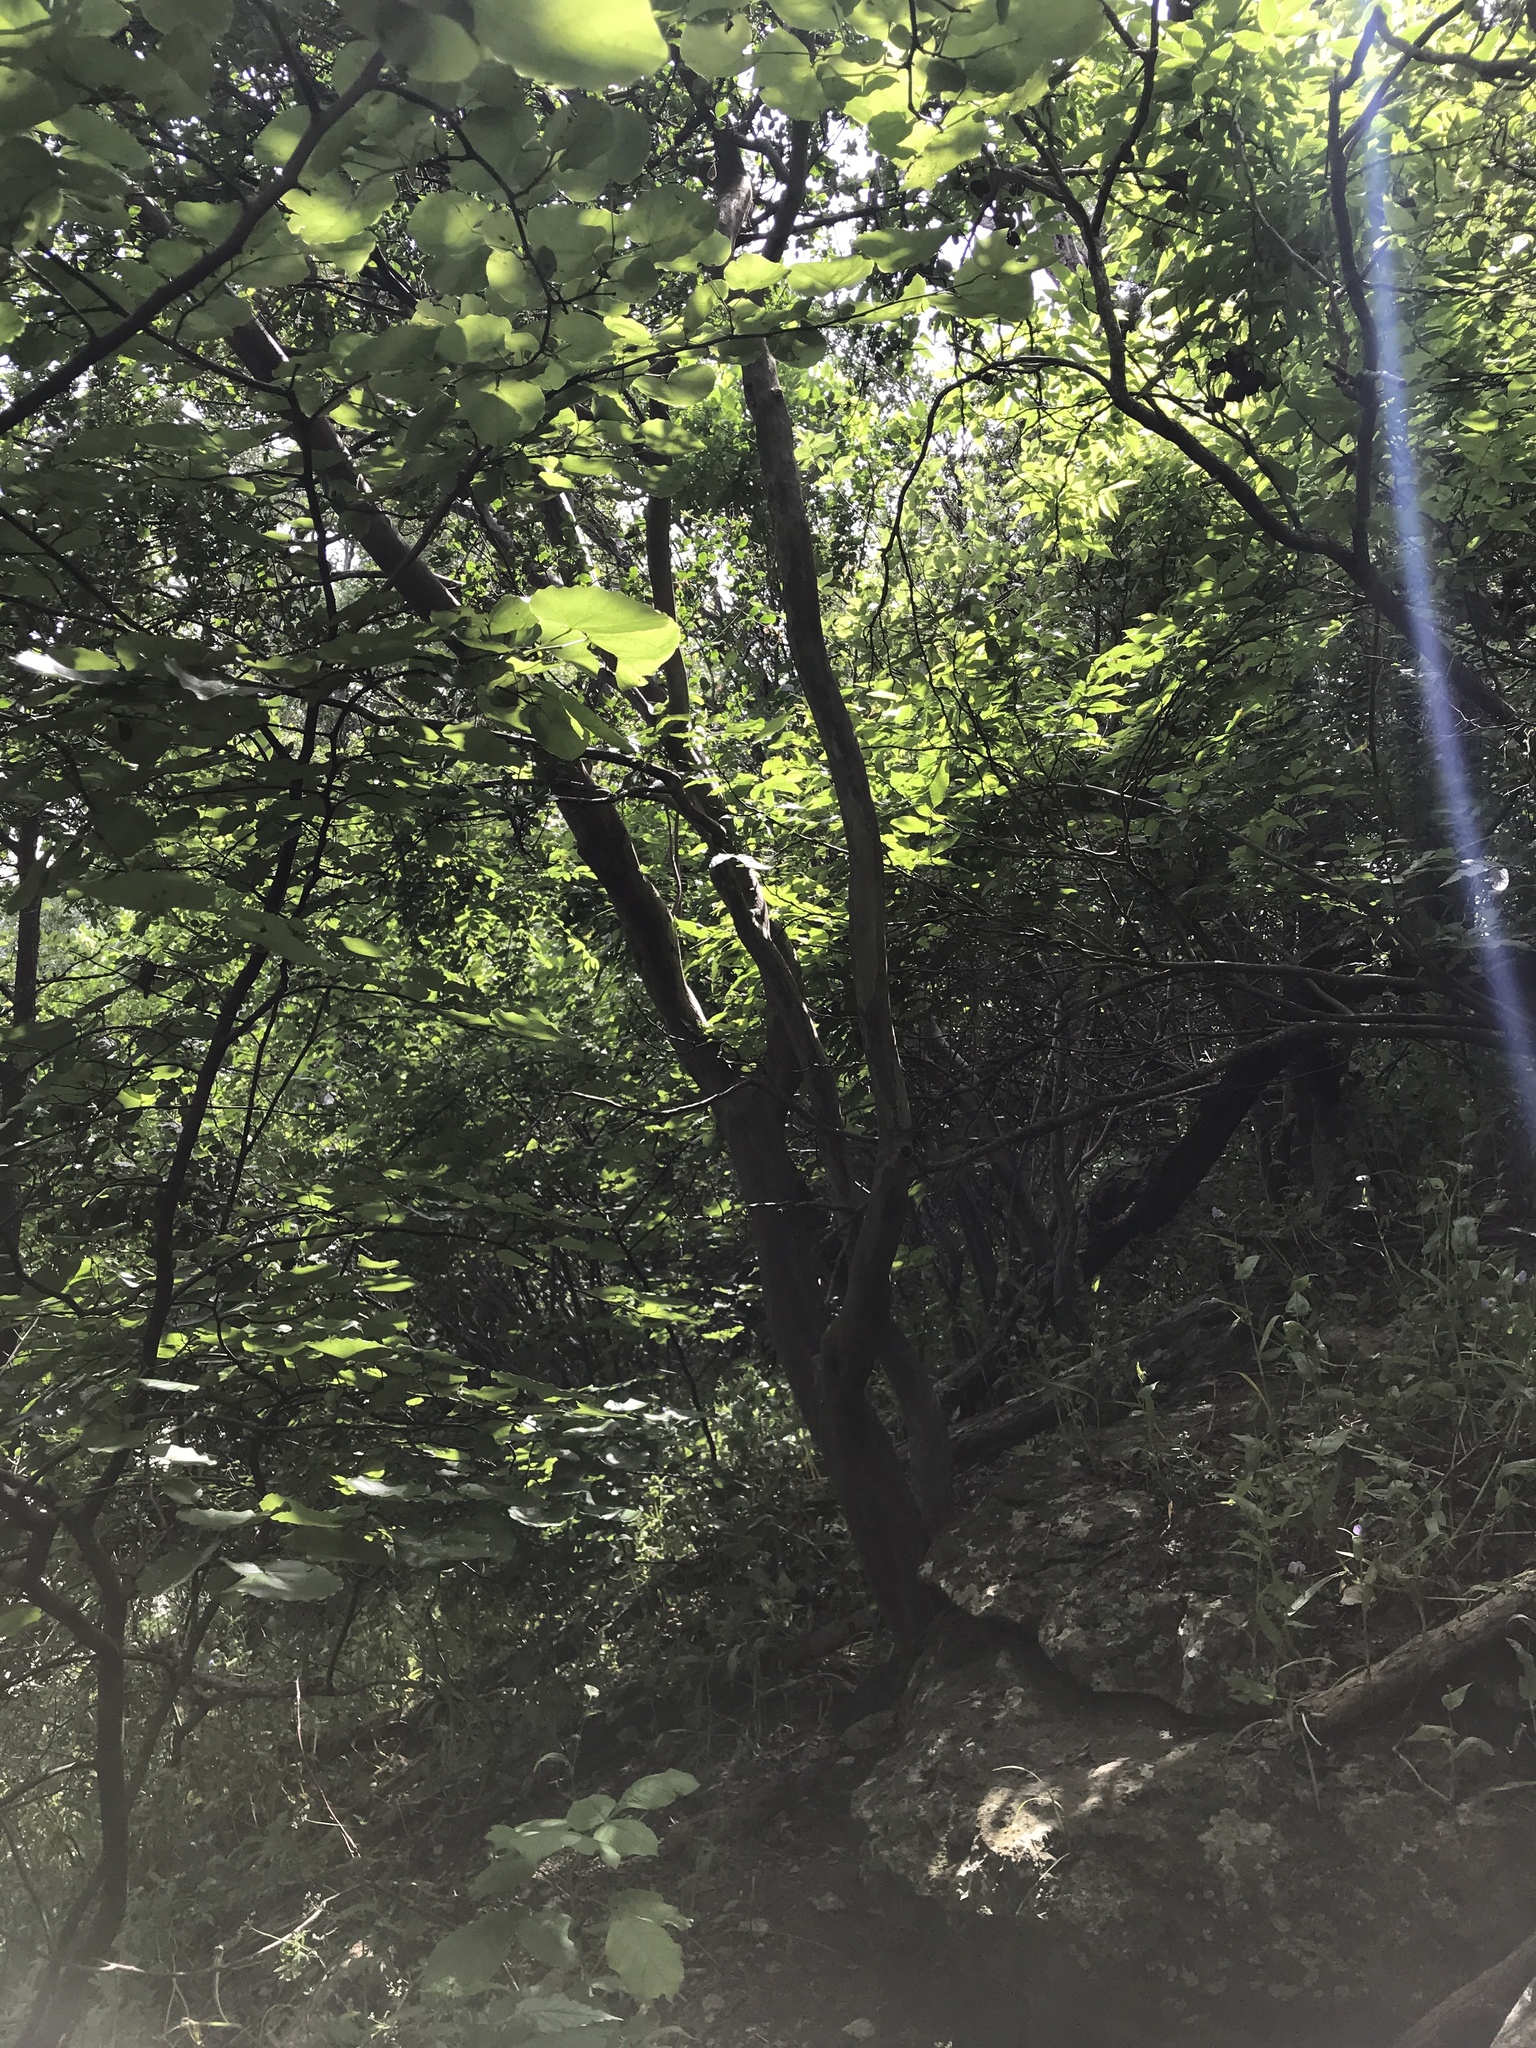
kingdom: Plantae
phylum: Tracheophyta
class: Magnoliopsida
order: Ericales
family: Ebenaceae
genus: Diospyros
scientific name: Diospyros texana
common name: Texas persimmon
